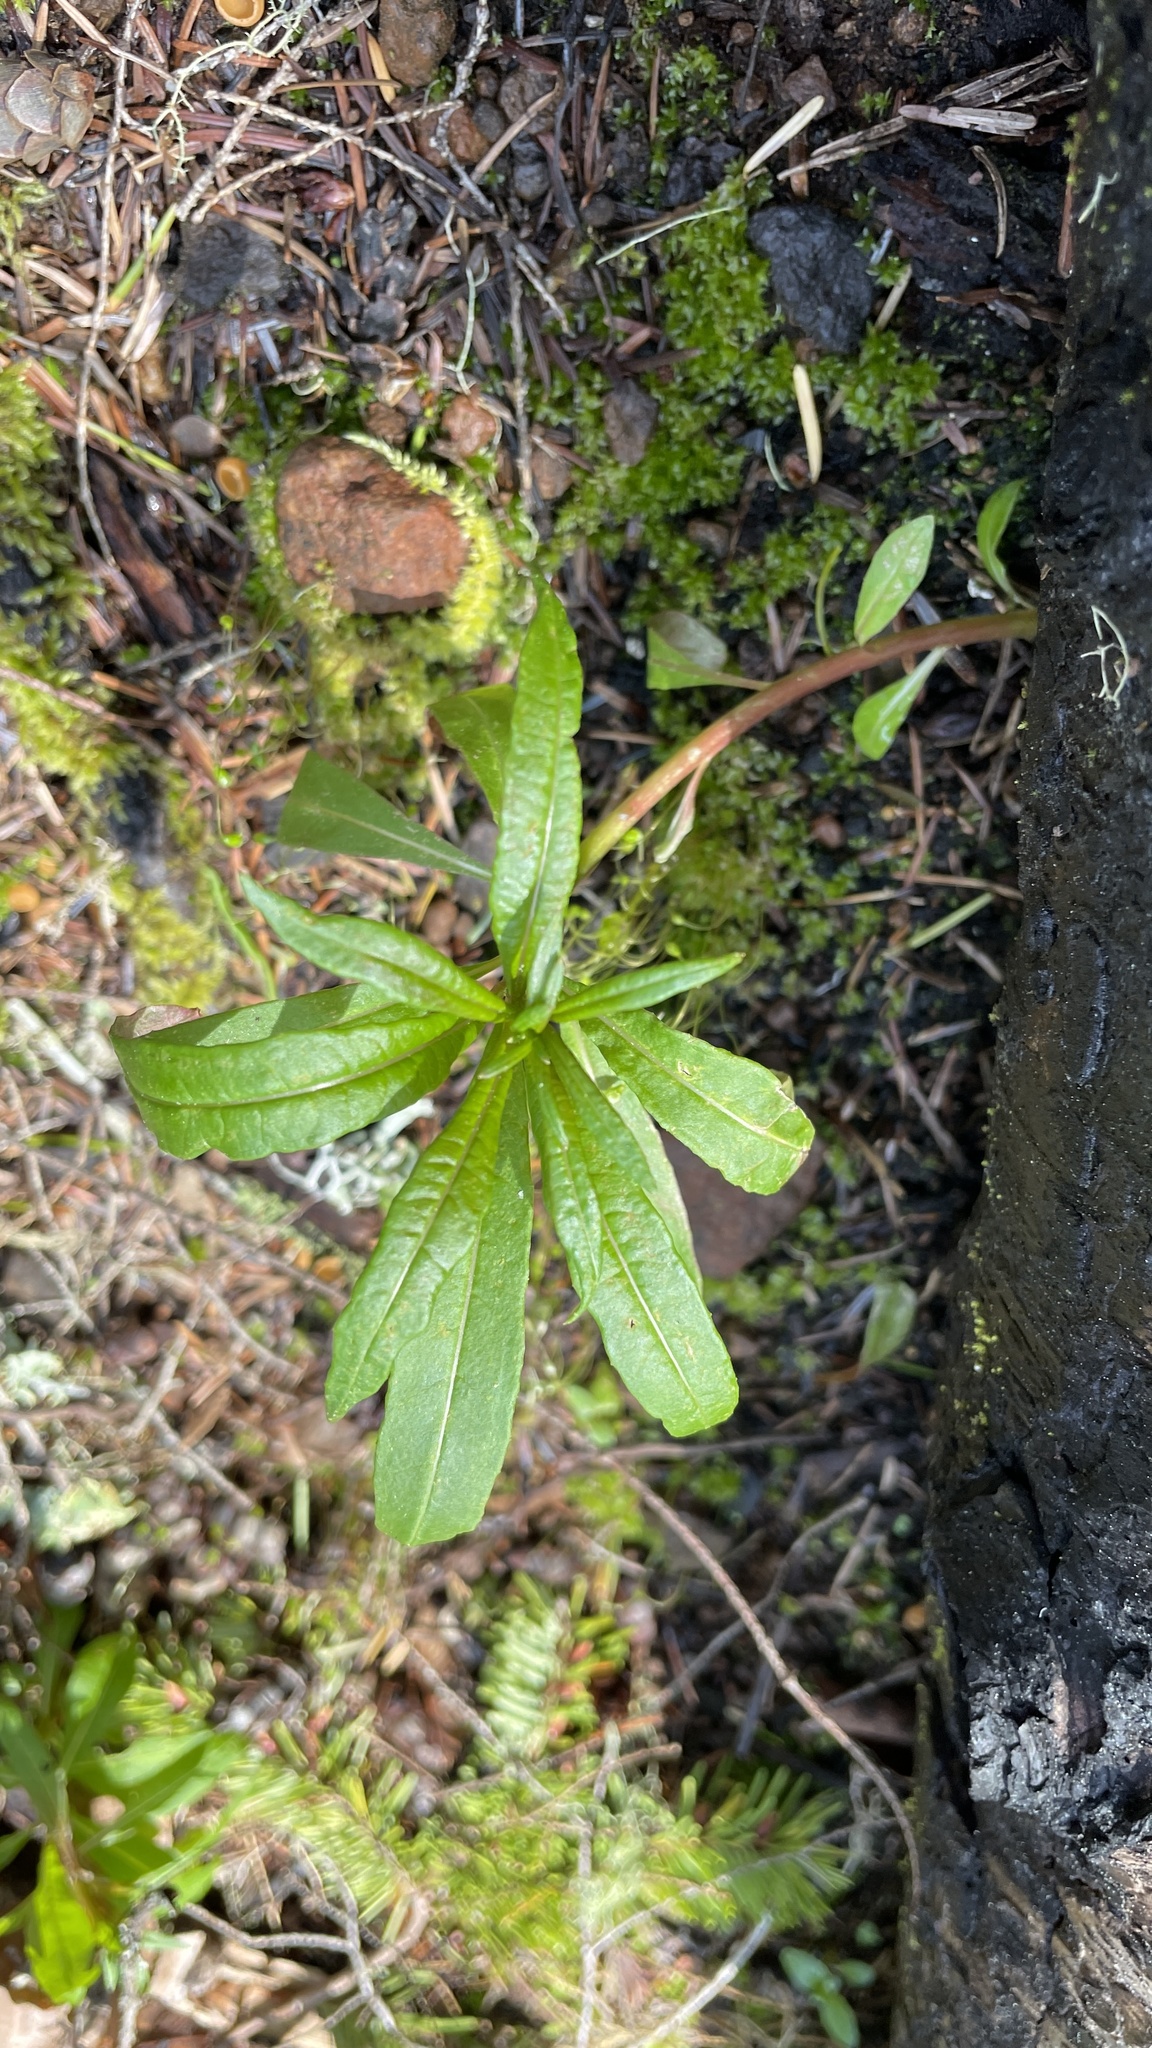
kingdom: Plantae
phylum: Tracheophyta
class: Magnoliopsida
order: Myrtales
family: Onagraceae
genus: Chamaenerion
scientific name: Chamaenerion angustifolium
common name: Fireweed
